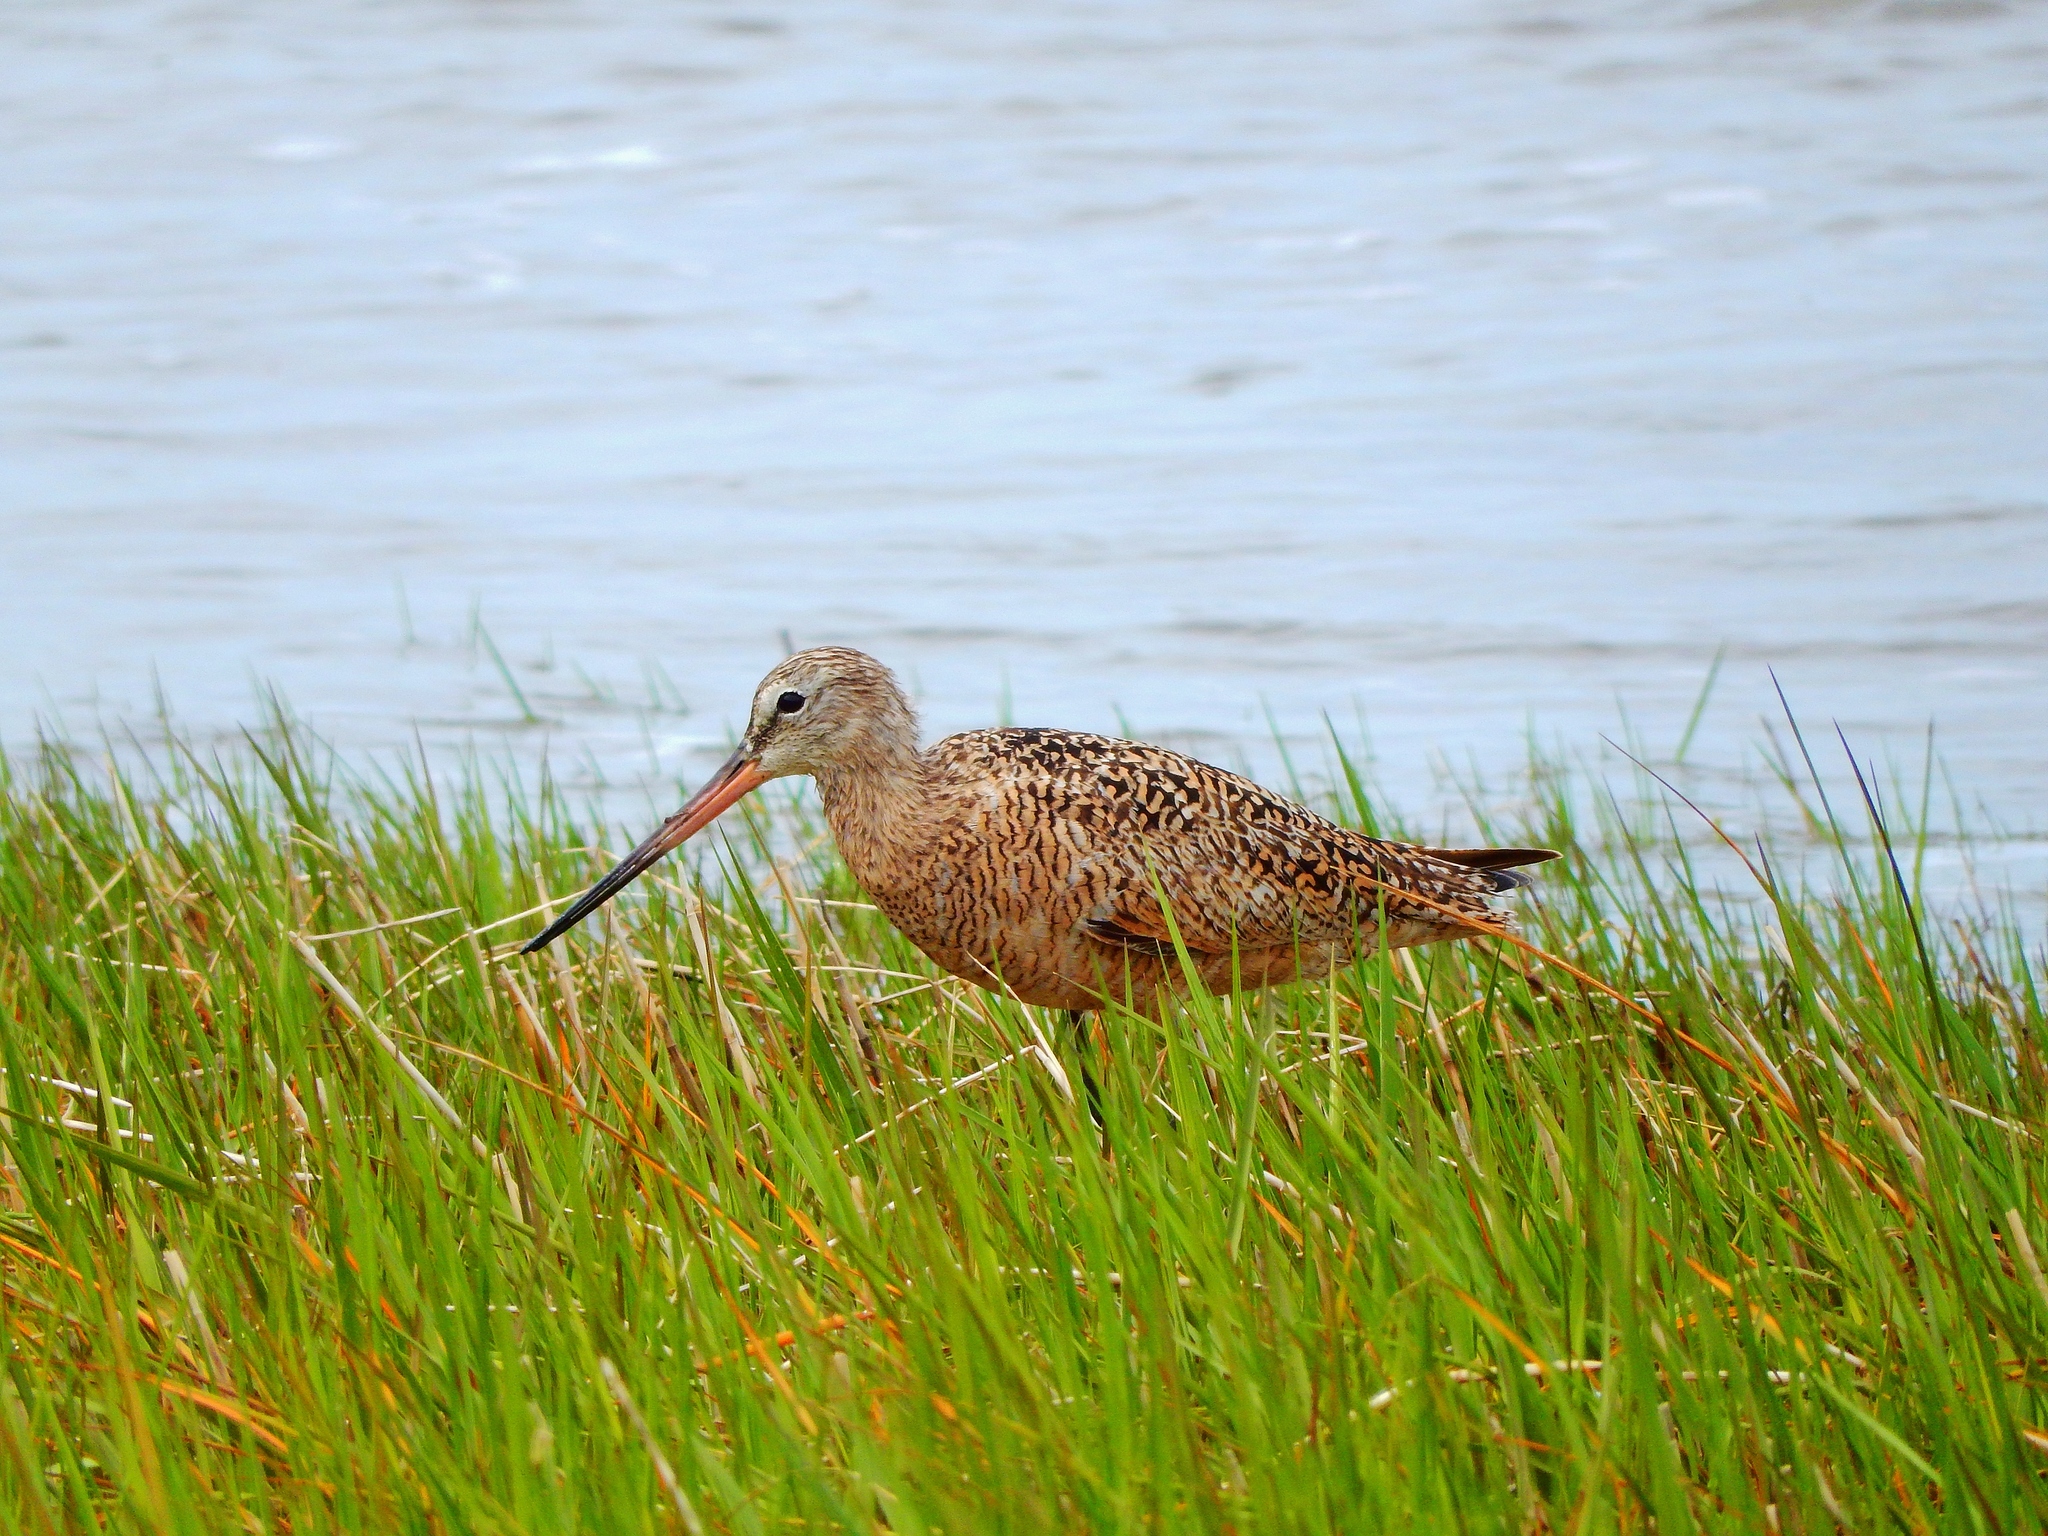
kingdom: Animalia
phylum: Chordata
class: Aves
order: Charadriiformes
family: Scolopacidae
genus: Limosa
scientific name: Limosa fedoa
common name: Marbled godwit
